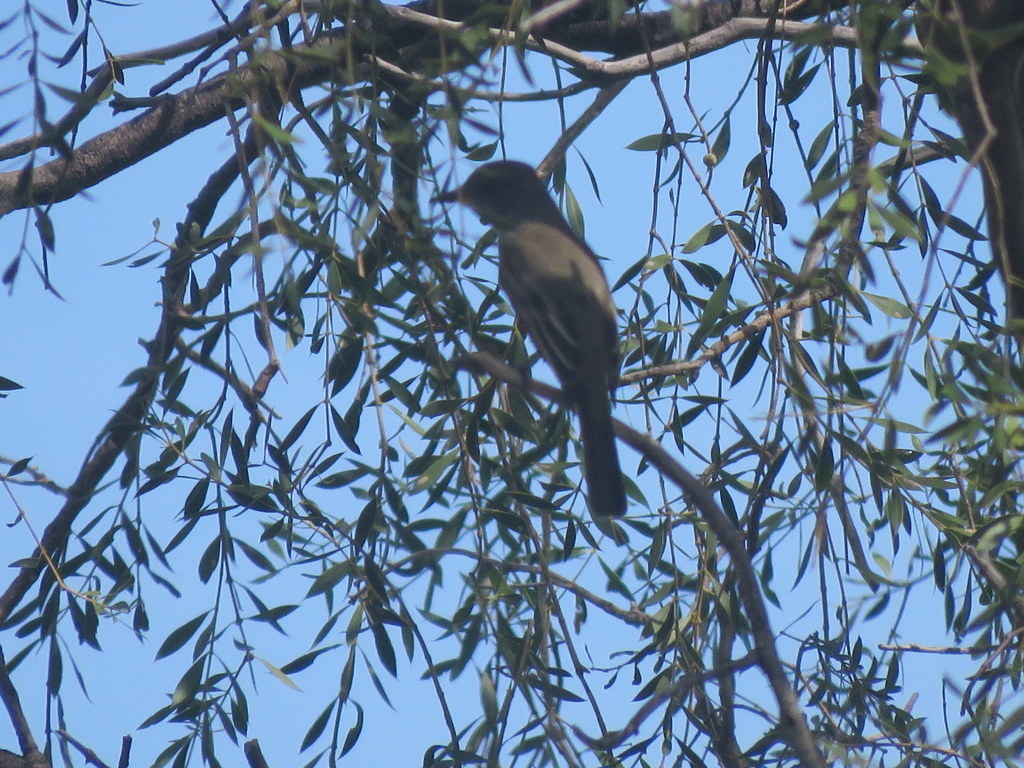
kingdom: Animalia
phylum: Chordata
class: Aves
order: Passeriformes
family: Tyrannidae
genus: Myiarchus
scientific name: Myiarchus tyrannulus
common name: Brown-crested flycatcher
